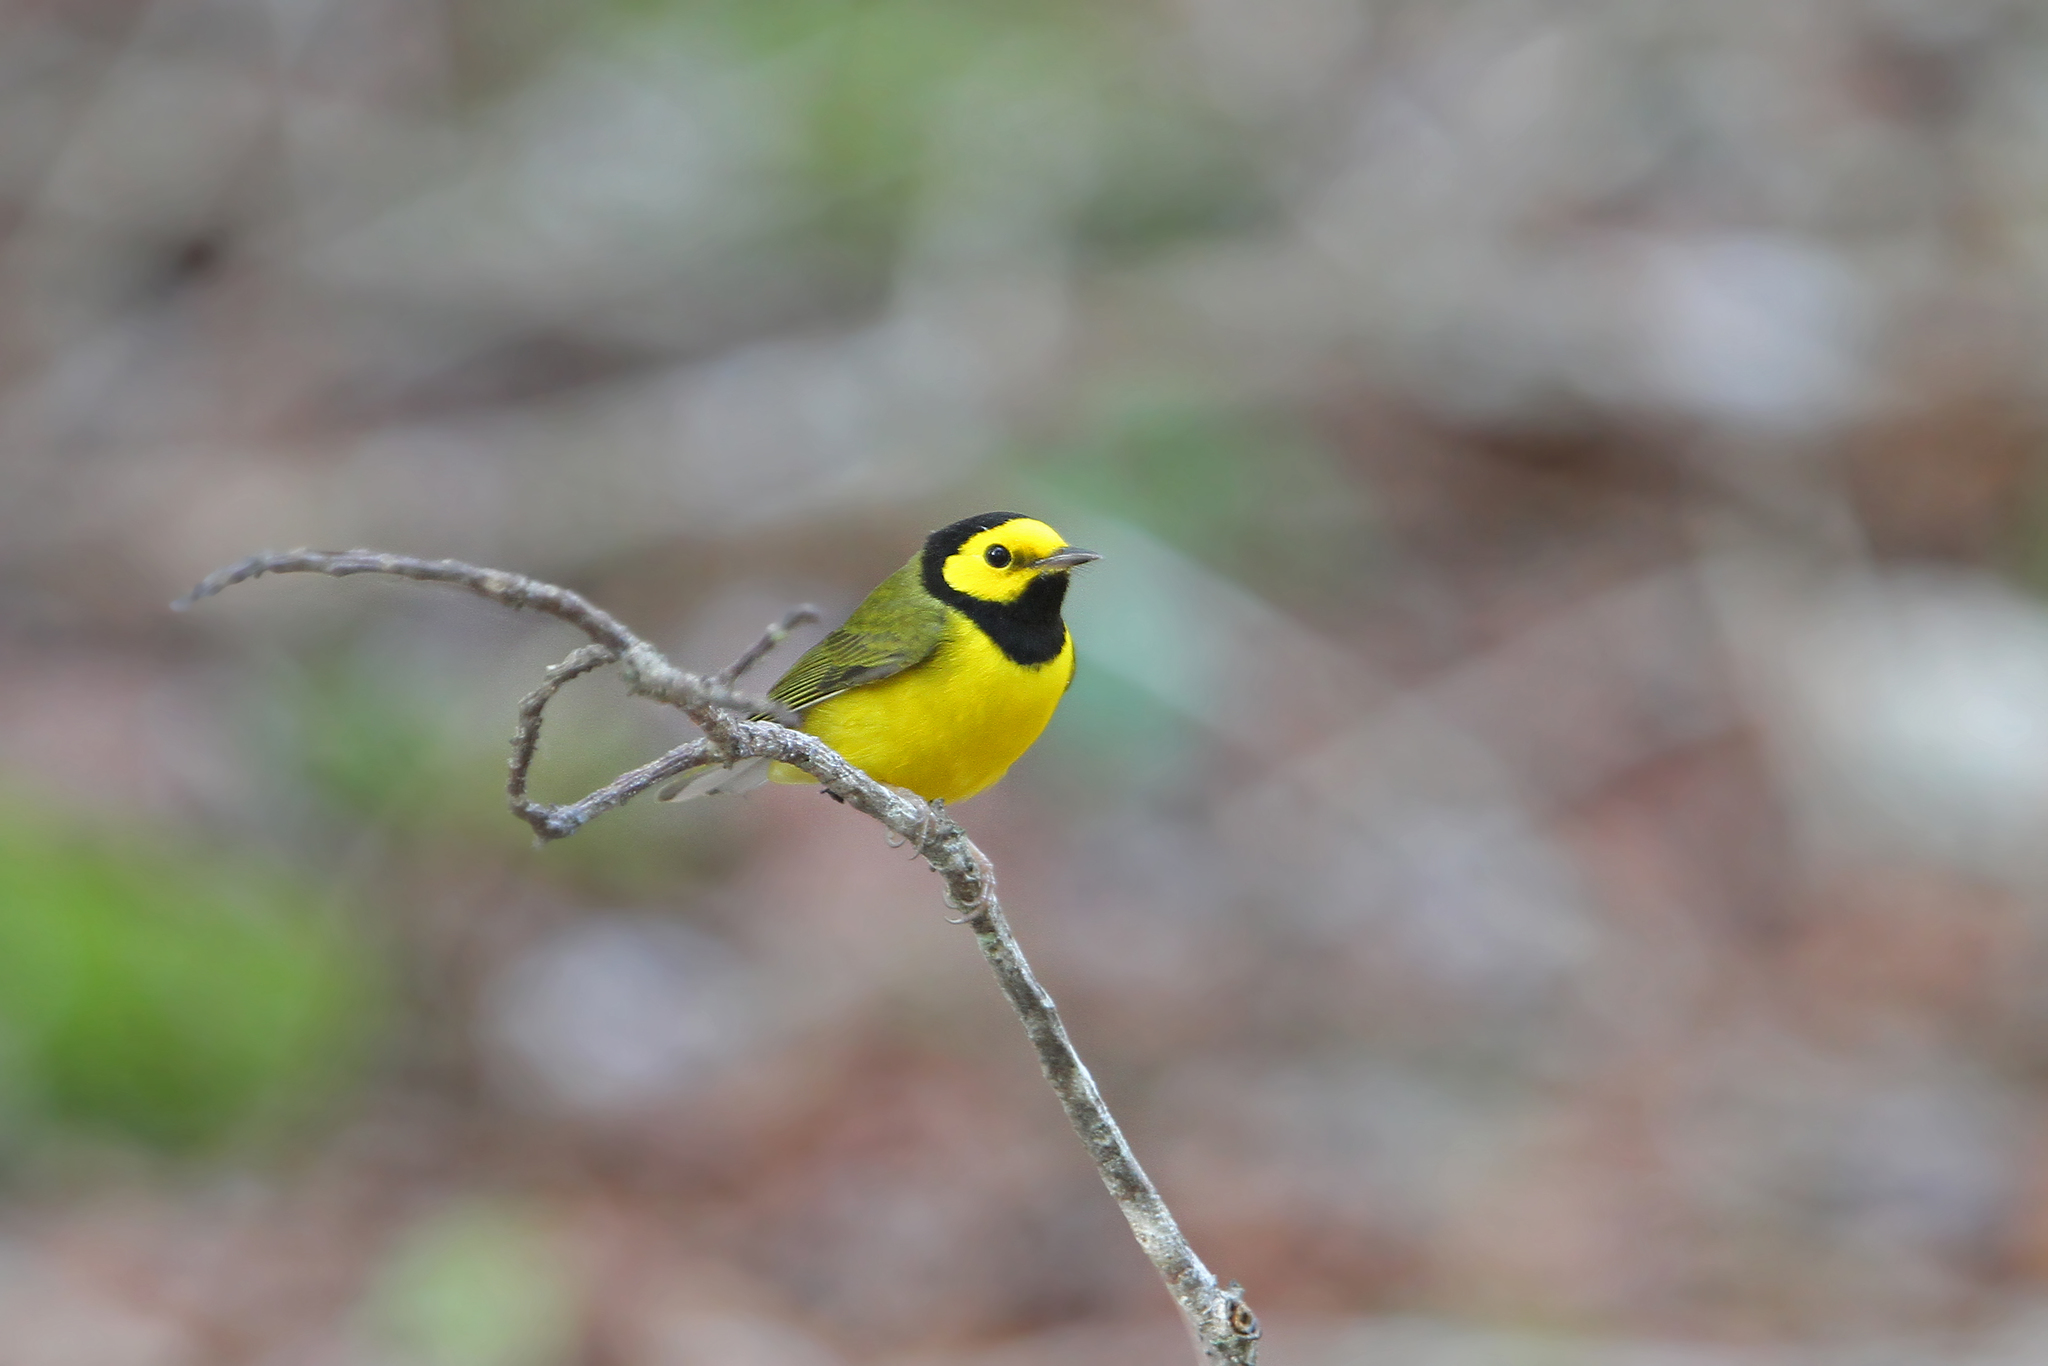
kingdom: Animalia
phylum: Chordata
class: Aves
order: Passeriformes
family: Parulidae
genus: Setophaga
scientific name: Setophaga citrina
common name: Hooded warbler
